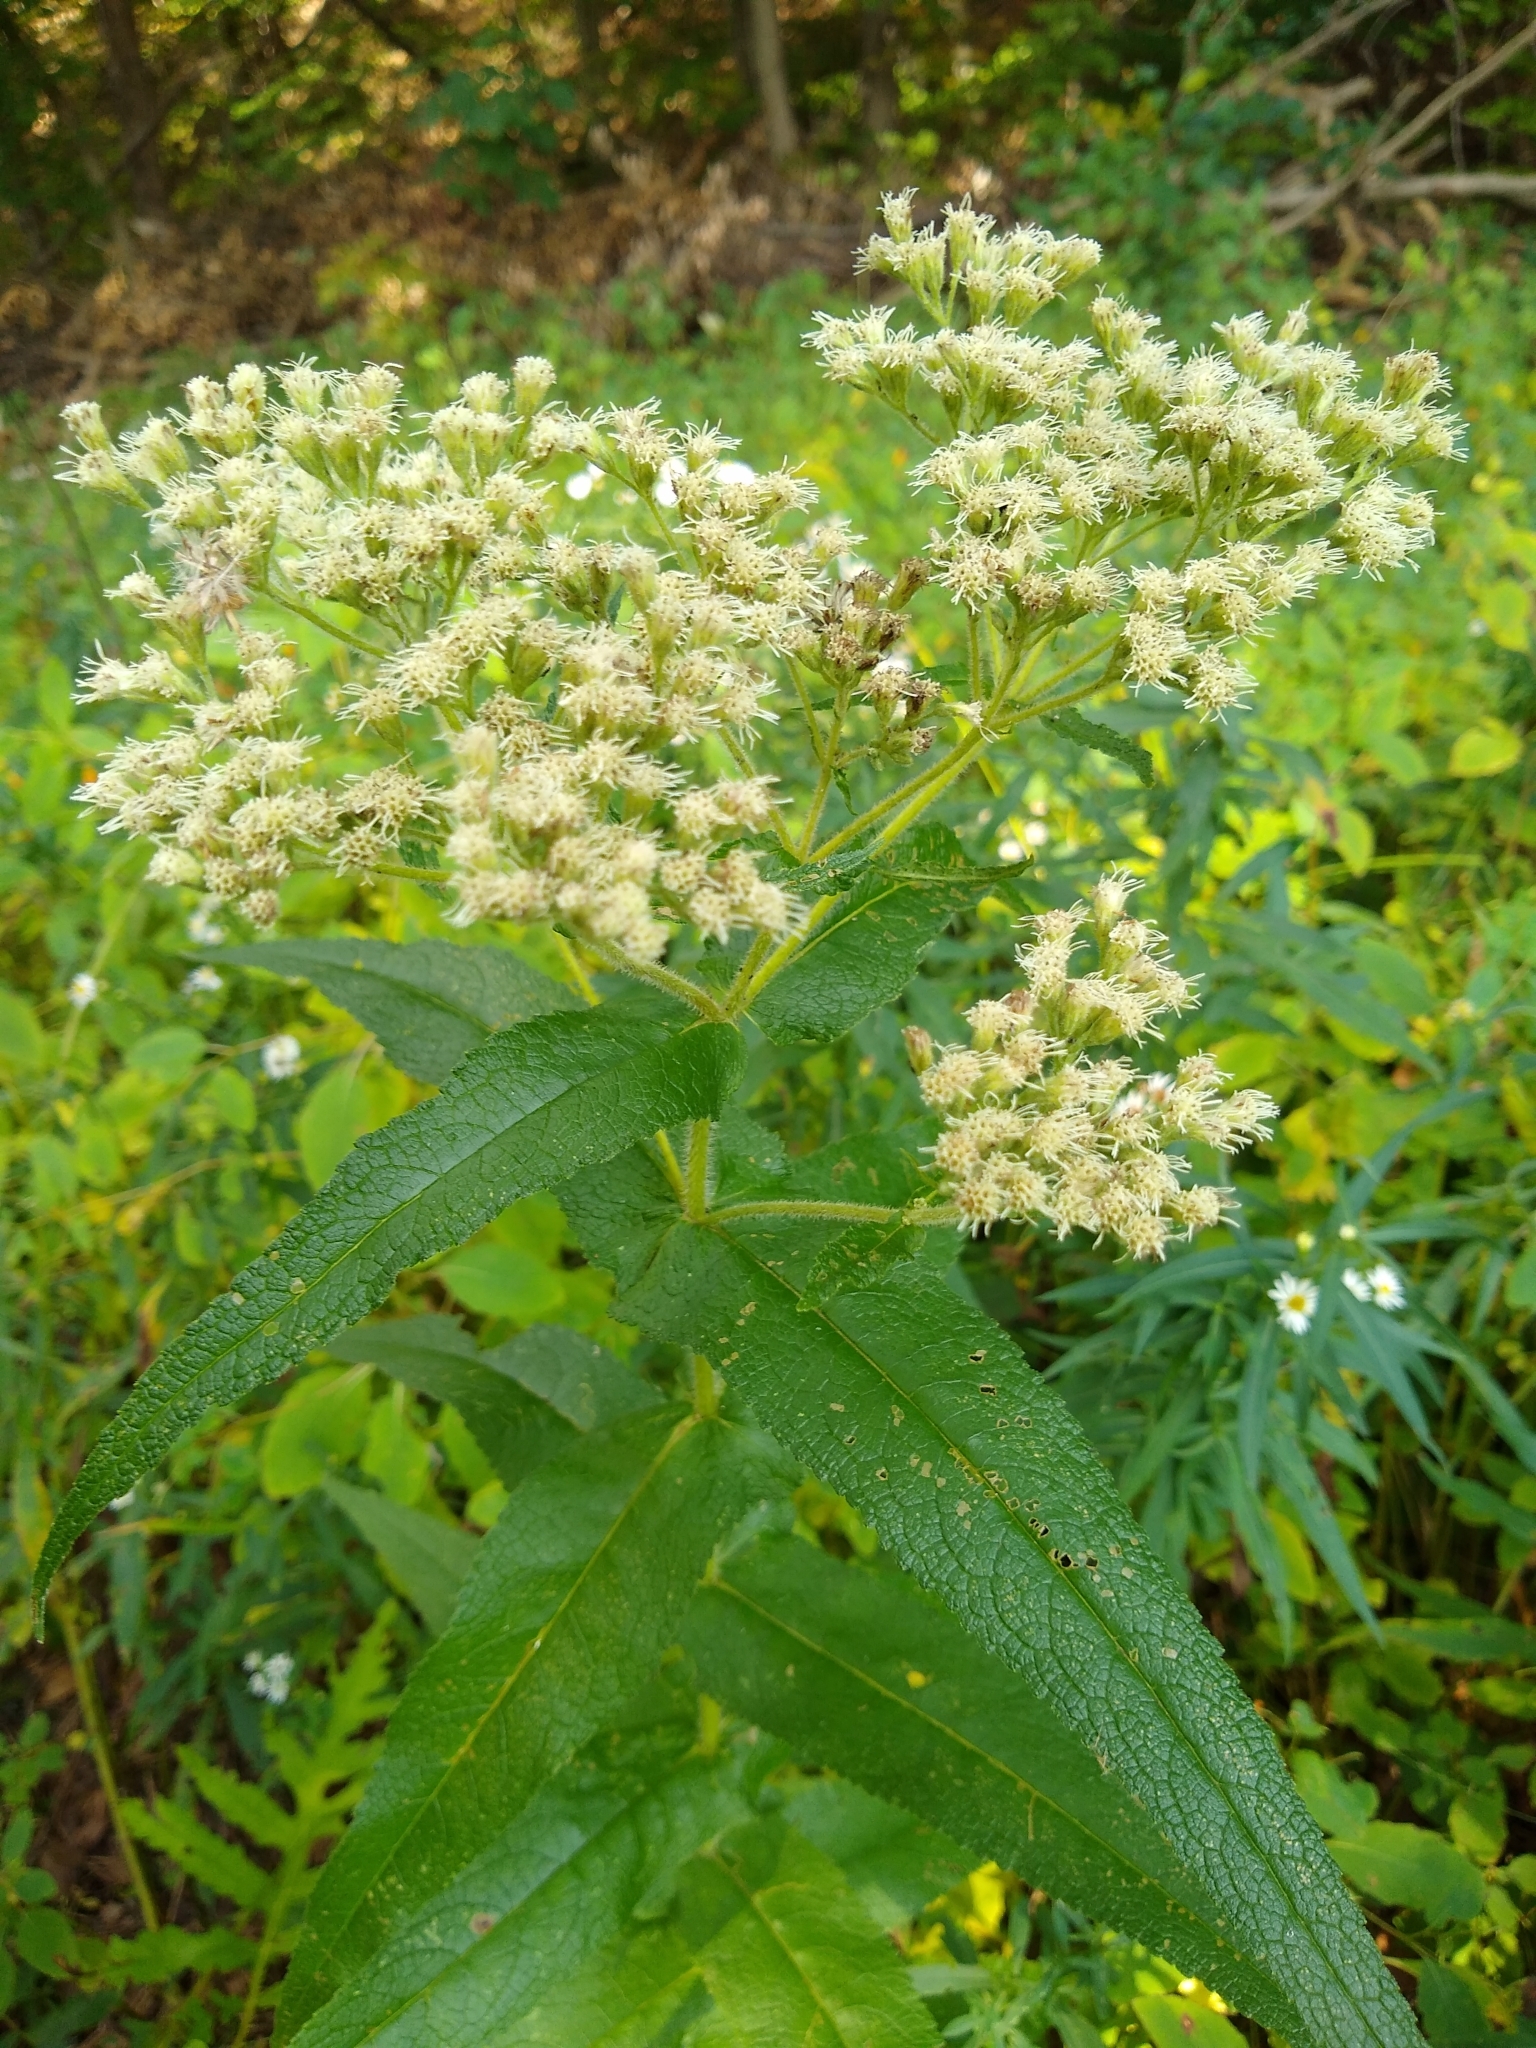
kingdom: Plantae
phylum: Tracheophyta
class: Magnoliopsida
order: Asterales
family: Asteraceae
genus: Eupatorium
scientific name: Eupatorium perfoliatum
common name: Boneset
